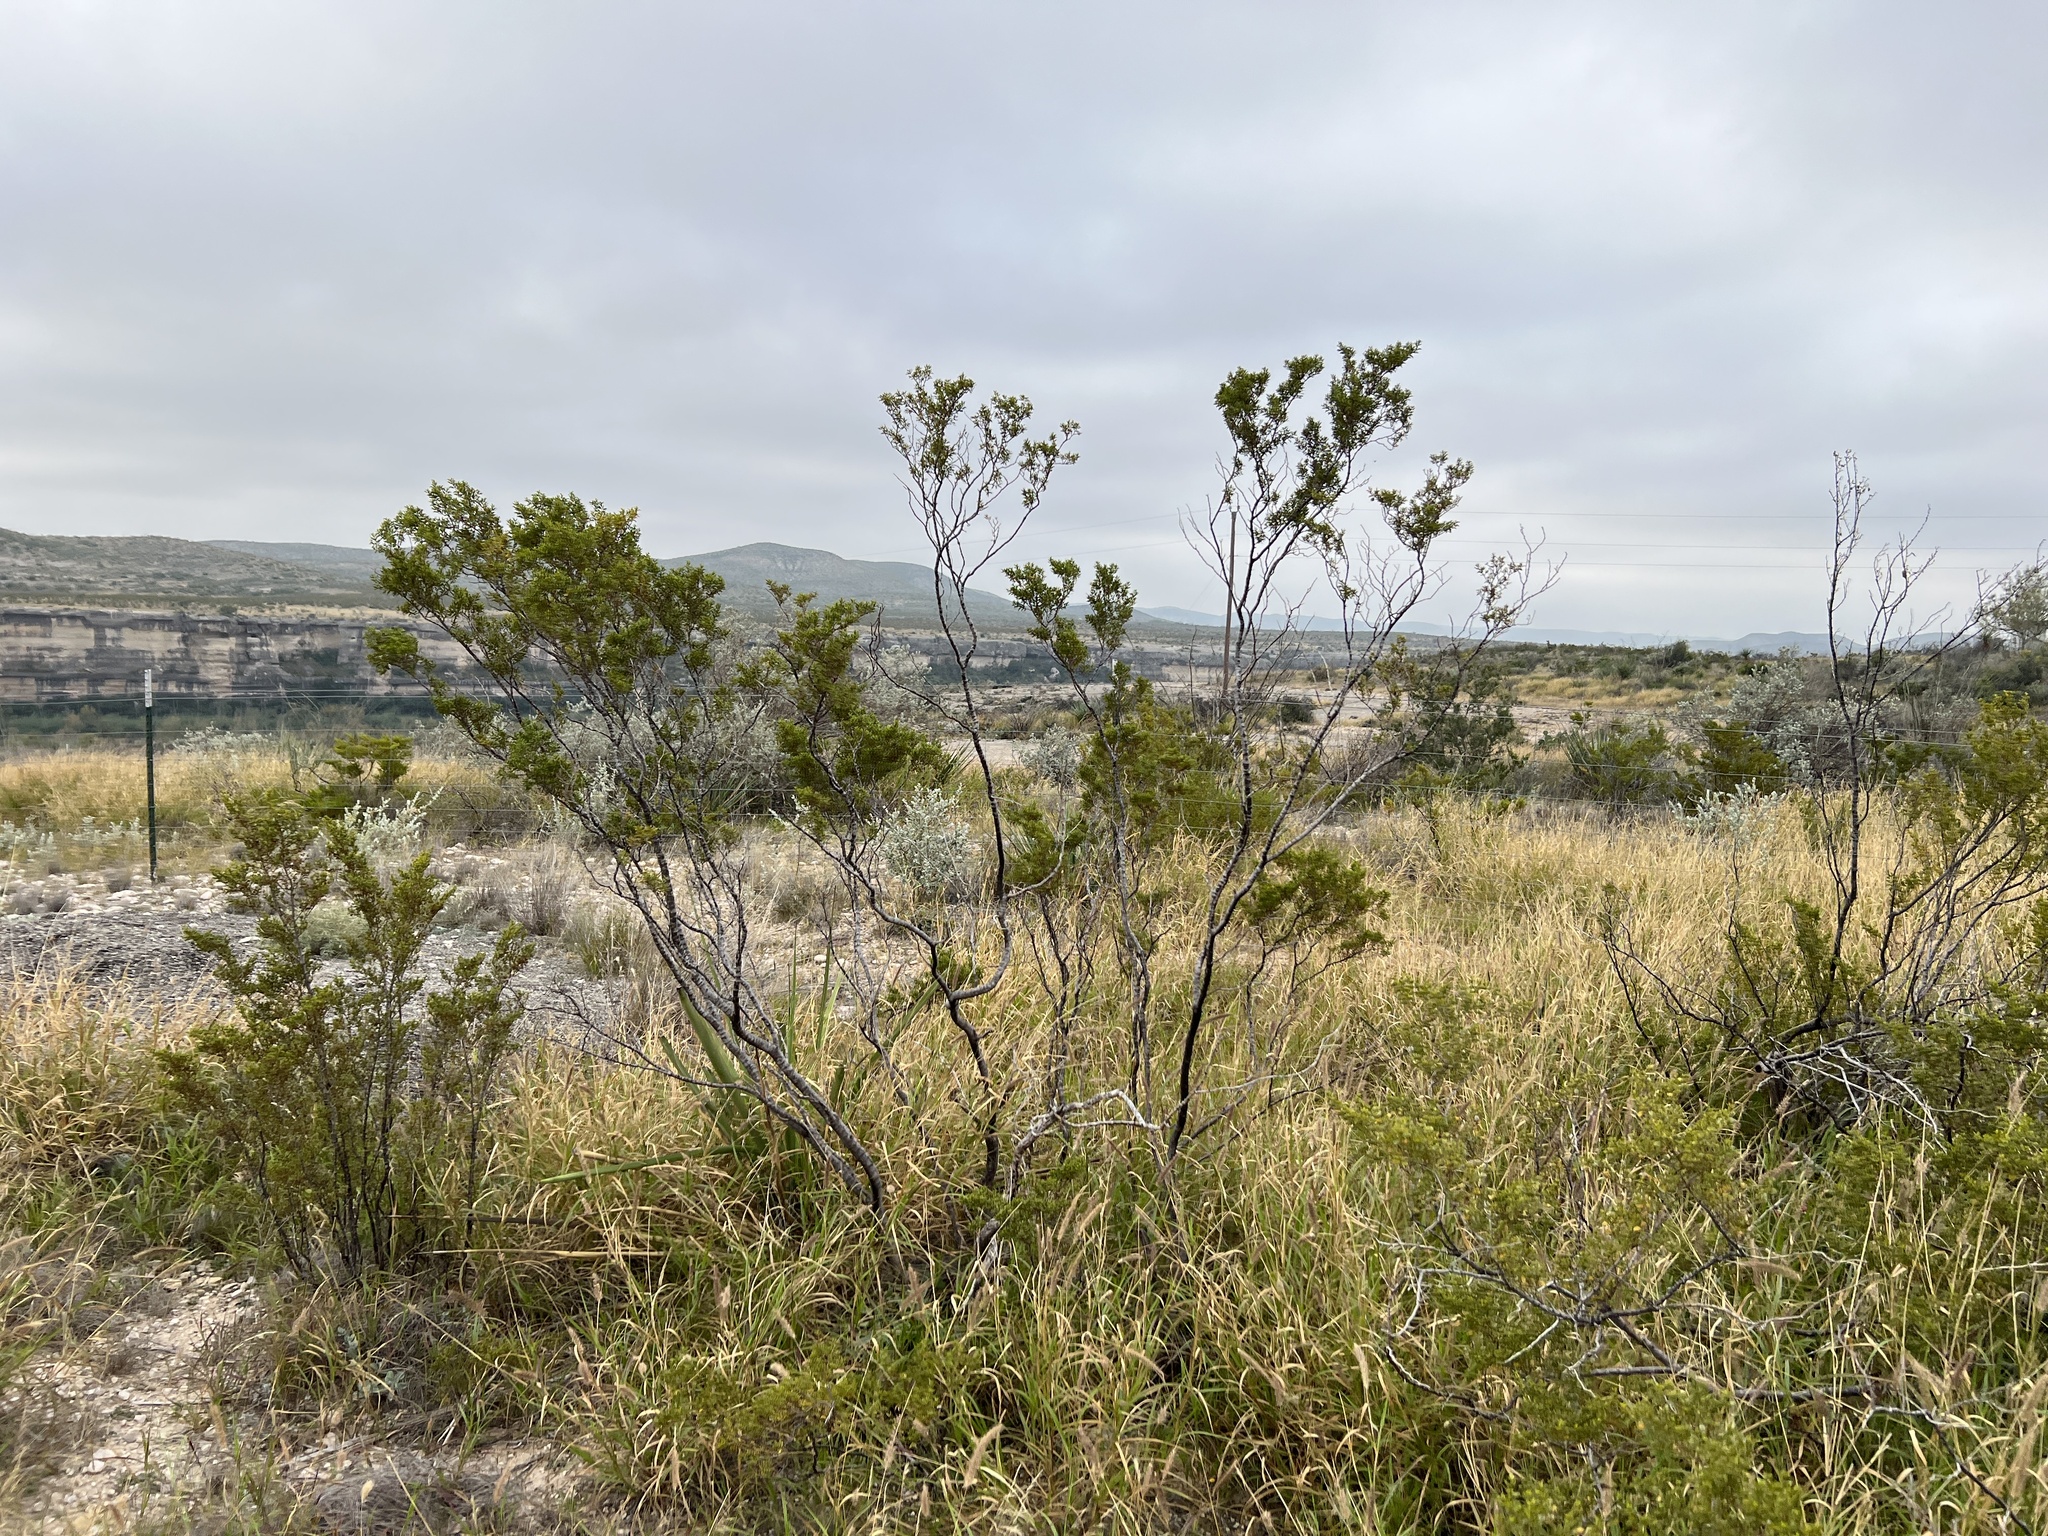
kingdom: Plantae
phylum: Tracheophyta
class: Magnoliopsida
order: Zygophyllales
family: Zygophyllaceae
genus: Larrea
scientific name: Larrea tridentata
